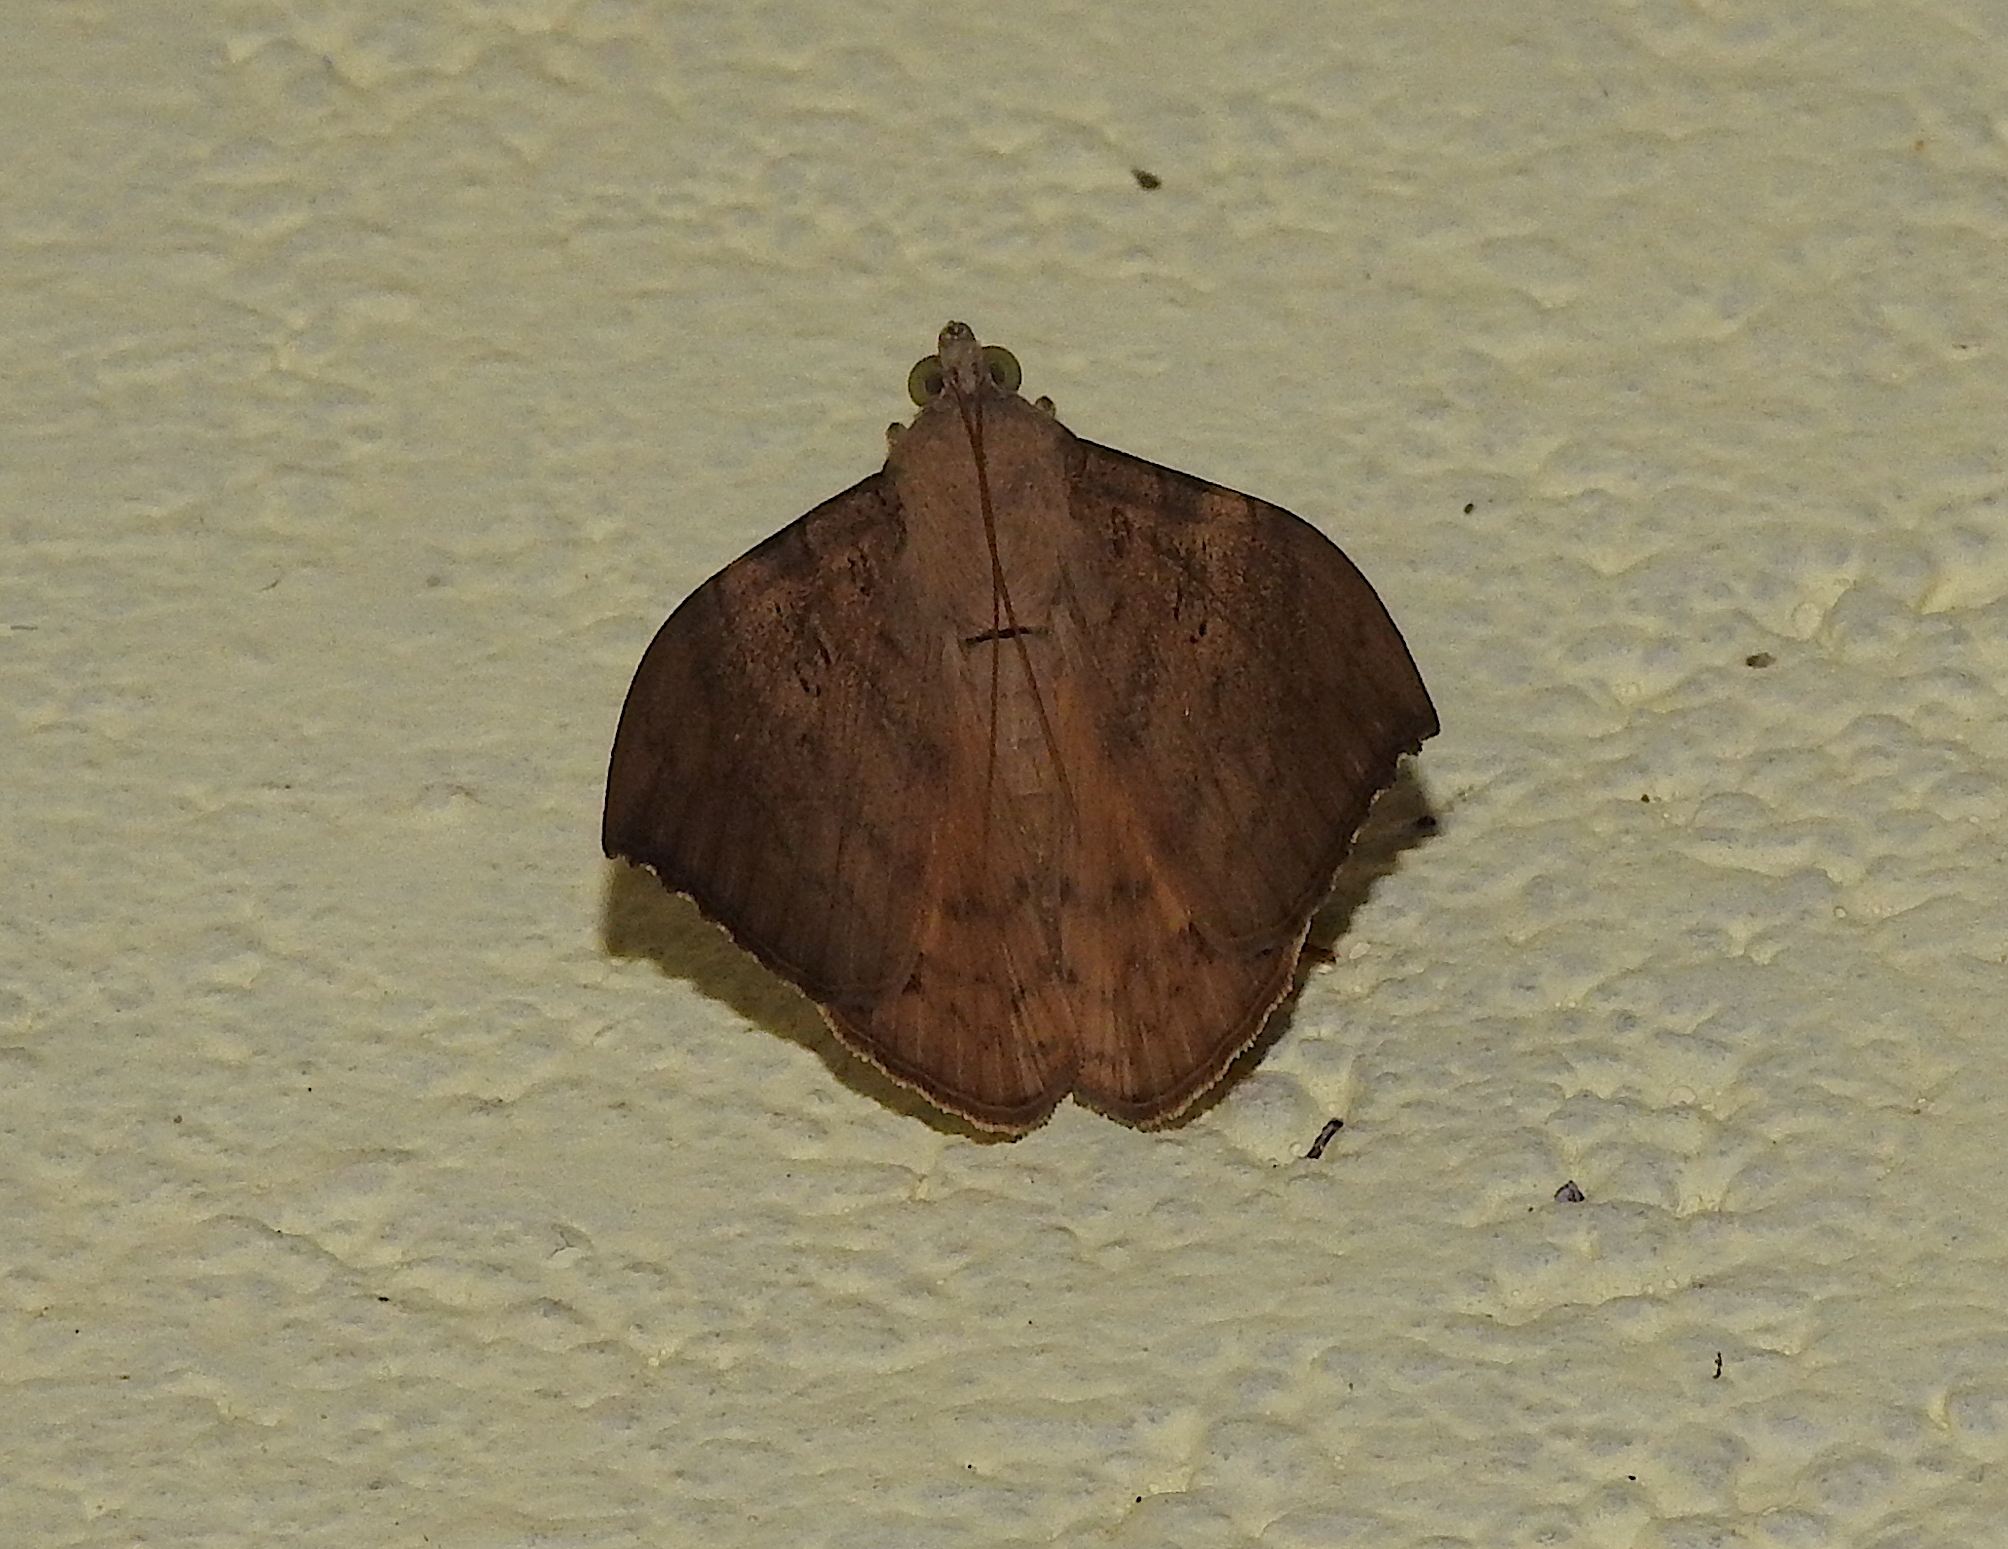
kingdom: Animalia
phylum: Arthropoda
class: Insecta
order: Lepidoptera
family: Erebidae
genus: Oxyodes
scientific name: Oxyodes scrobiculata
